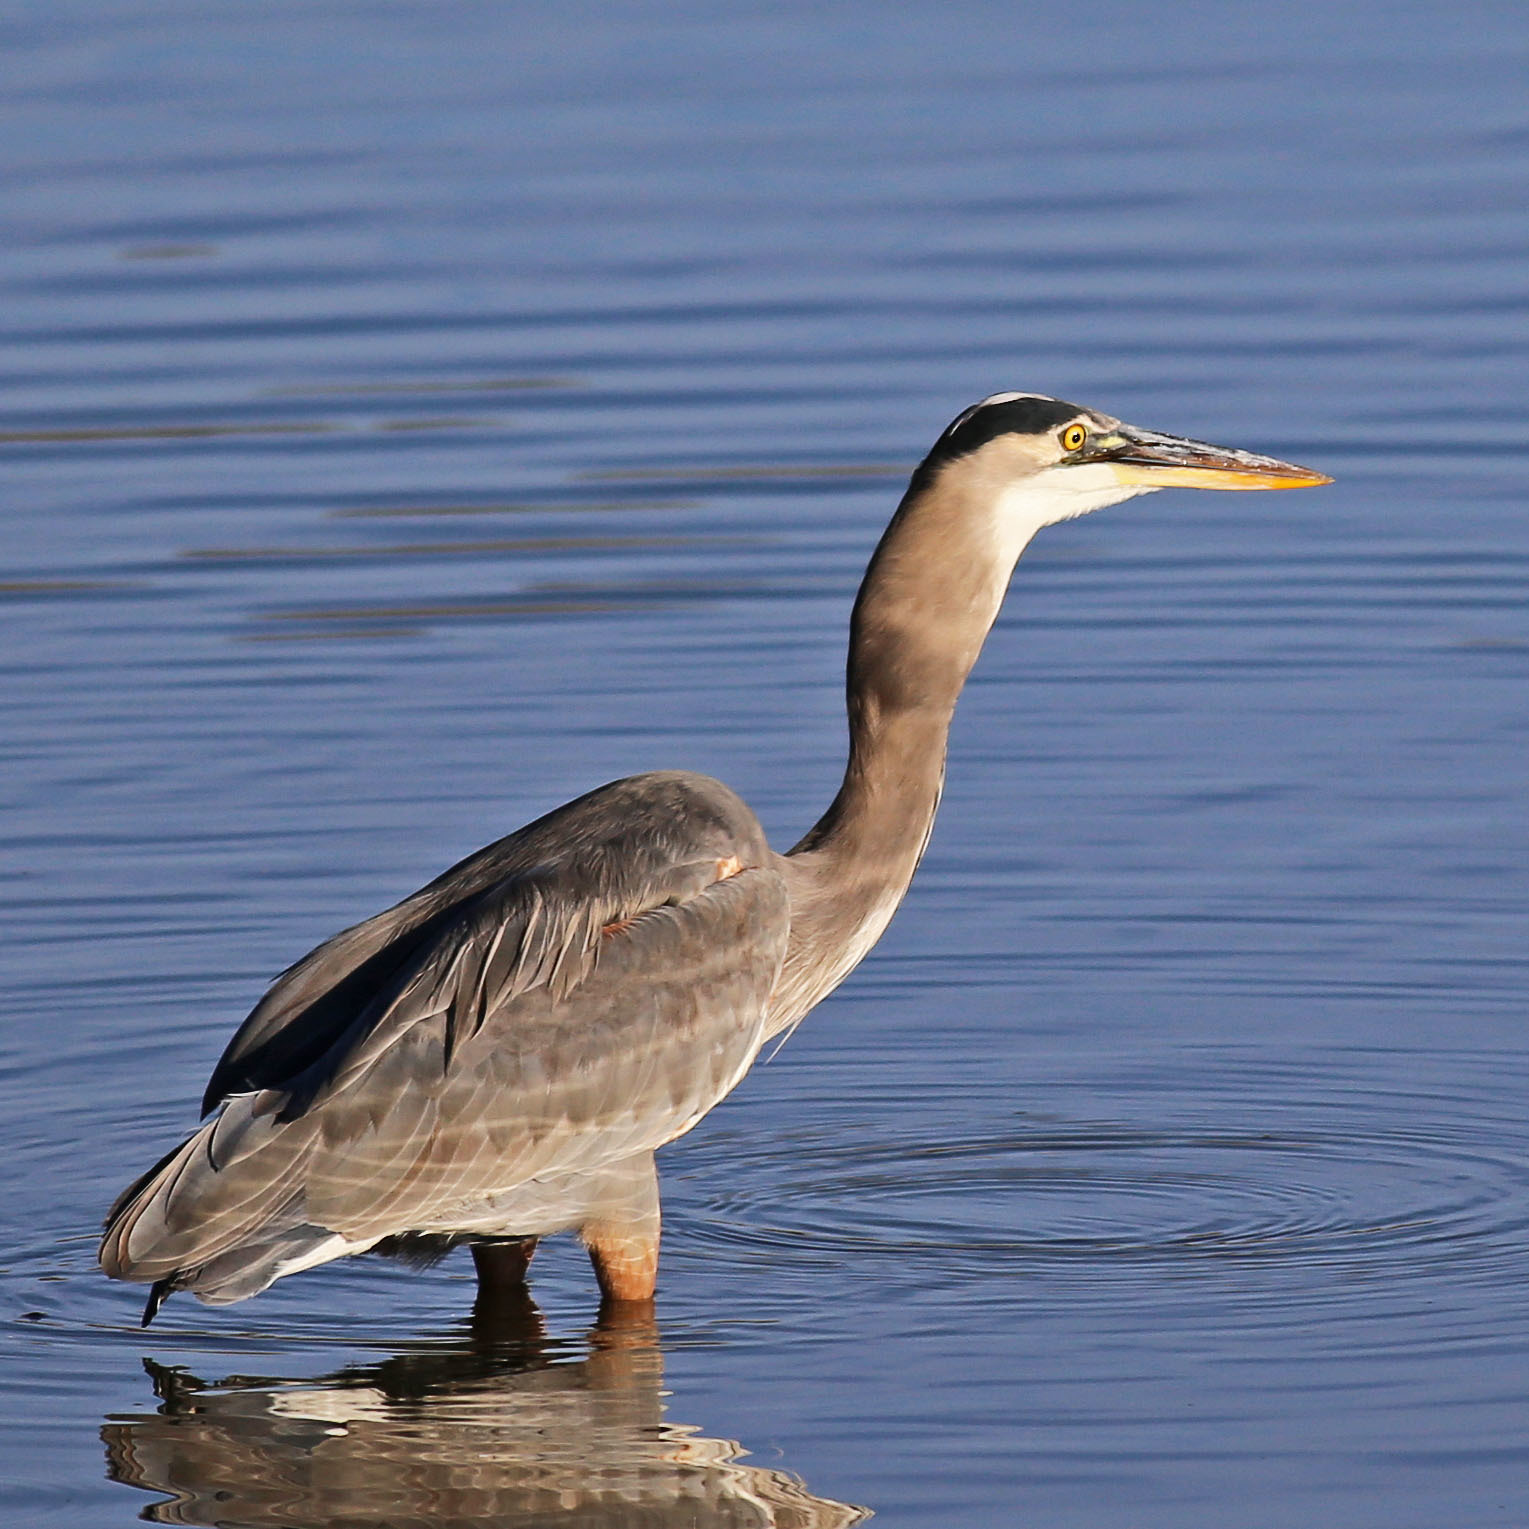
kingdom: Animalia
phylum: Chordata
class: Aves
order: Pelecaniformes
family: Ardeidae
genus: Ardea
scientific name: Ardea herodias
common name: Great blue heron
